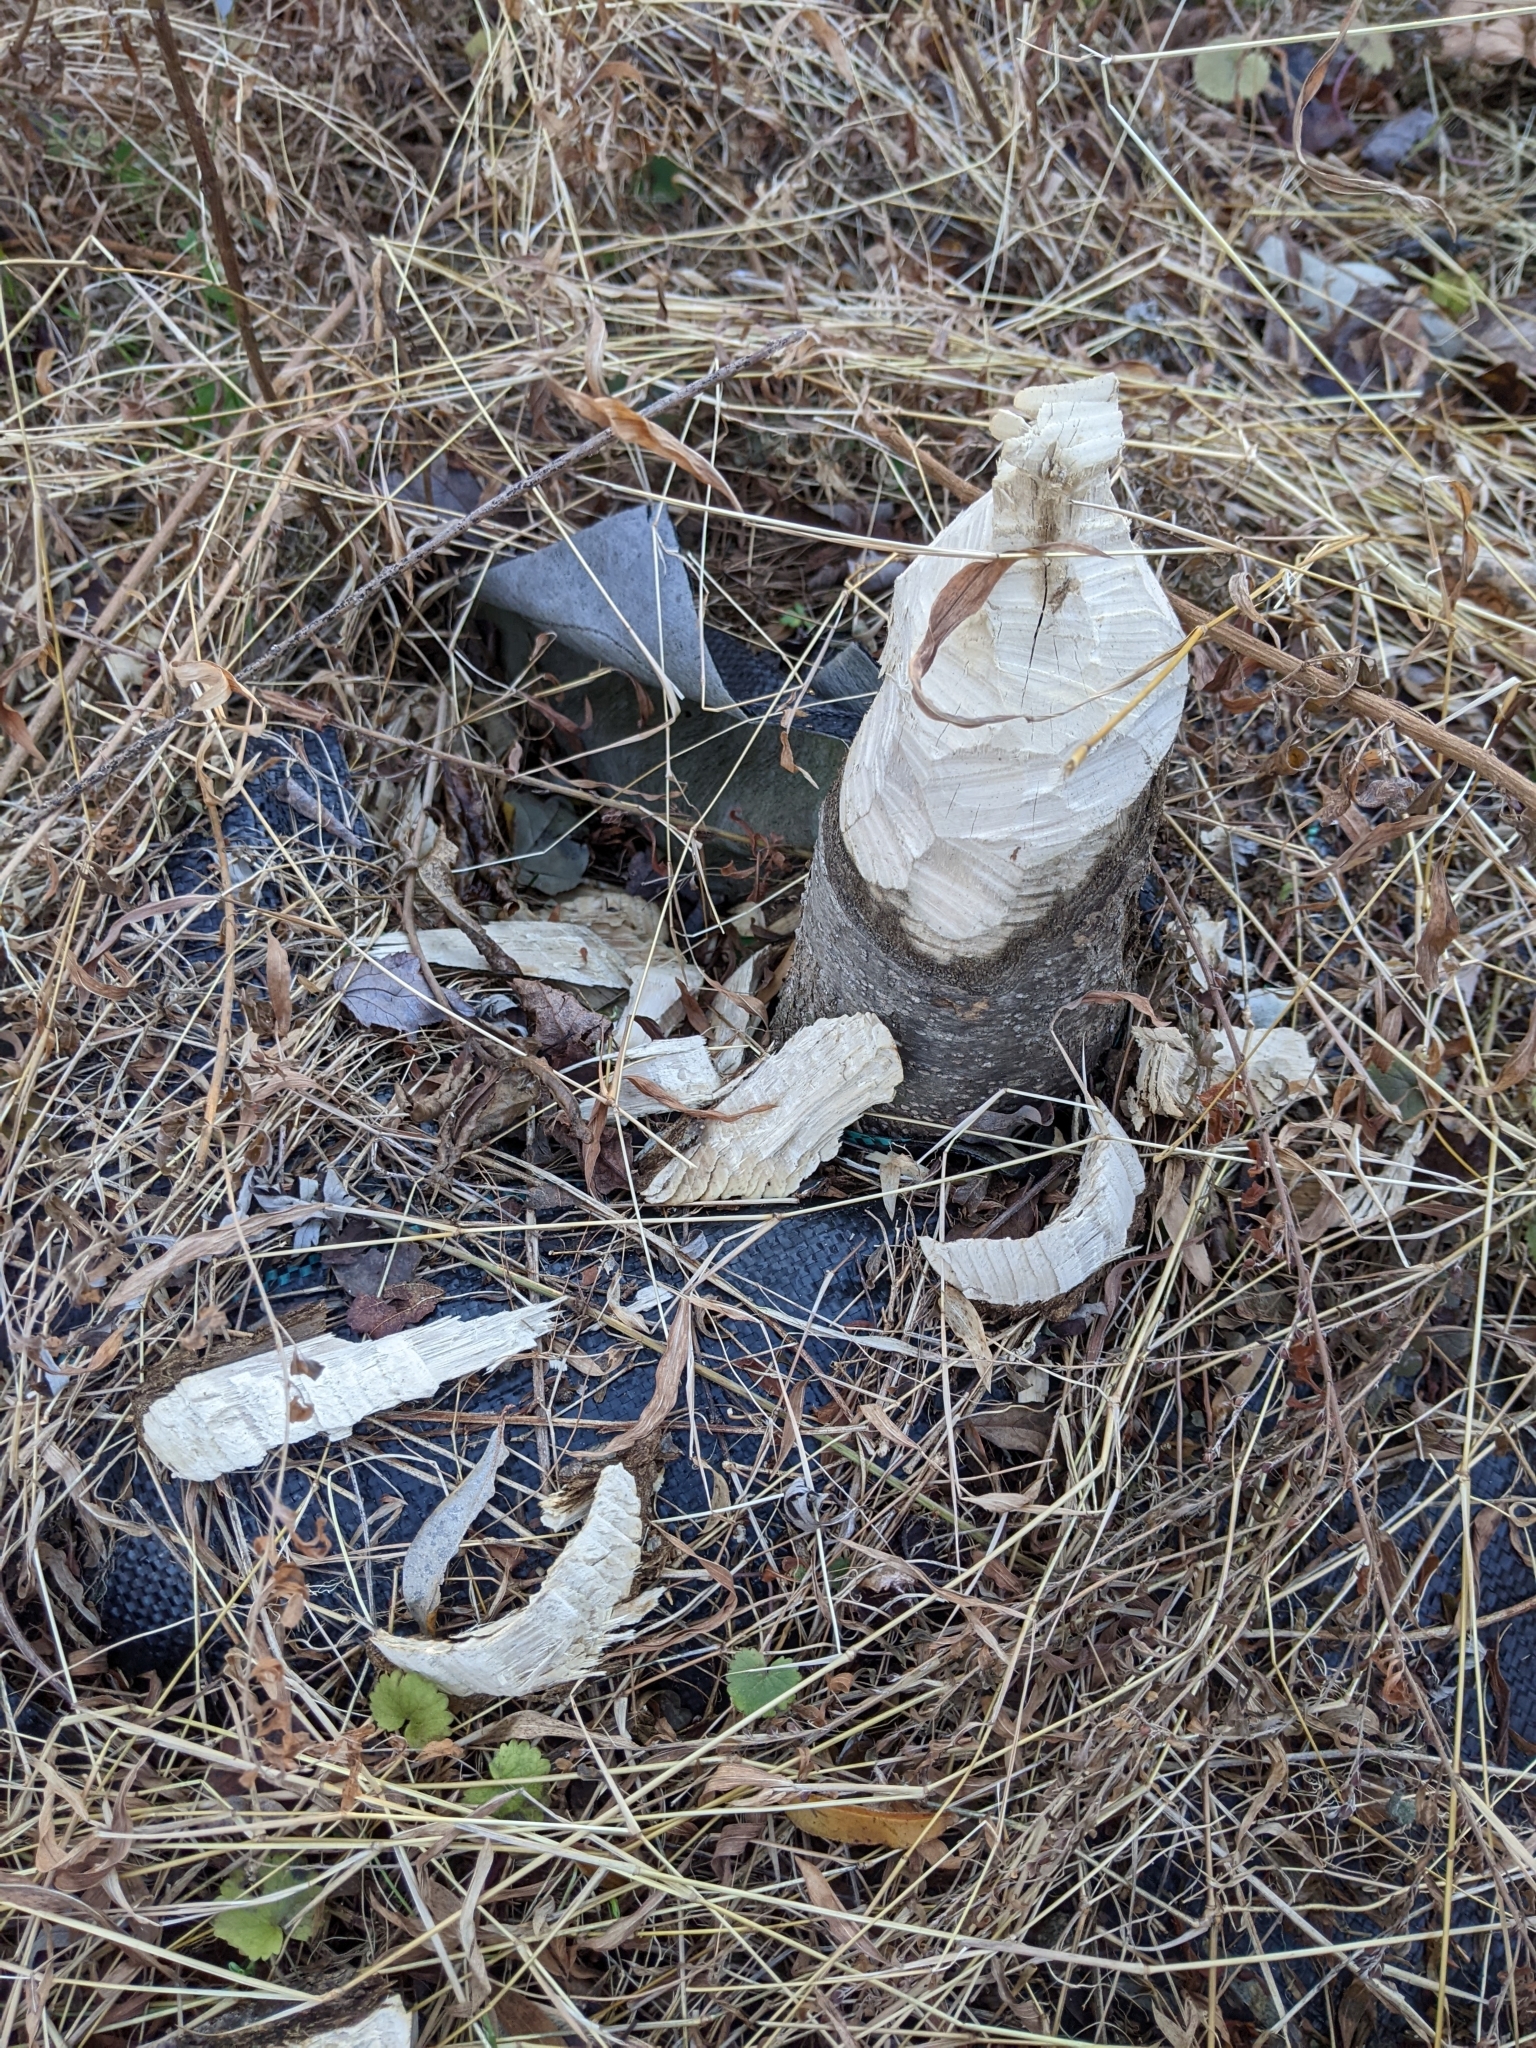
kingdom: Animalia
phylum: Chordata
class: Mammalia
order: Rodentia
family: Castoridae
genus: Castor
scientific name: Castor canadensis
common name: American beaver
